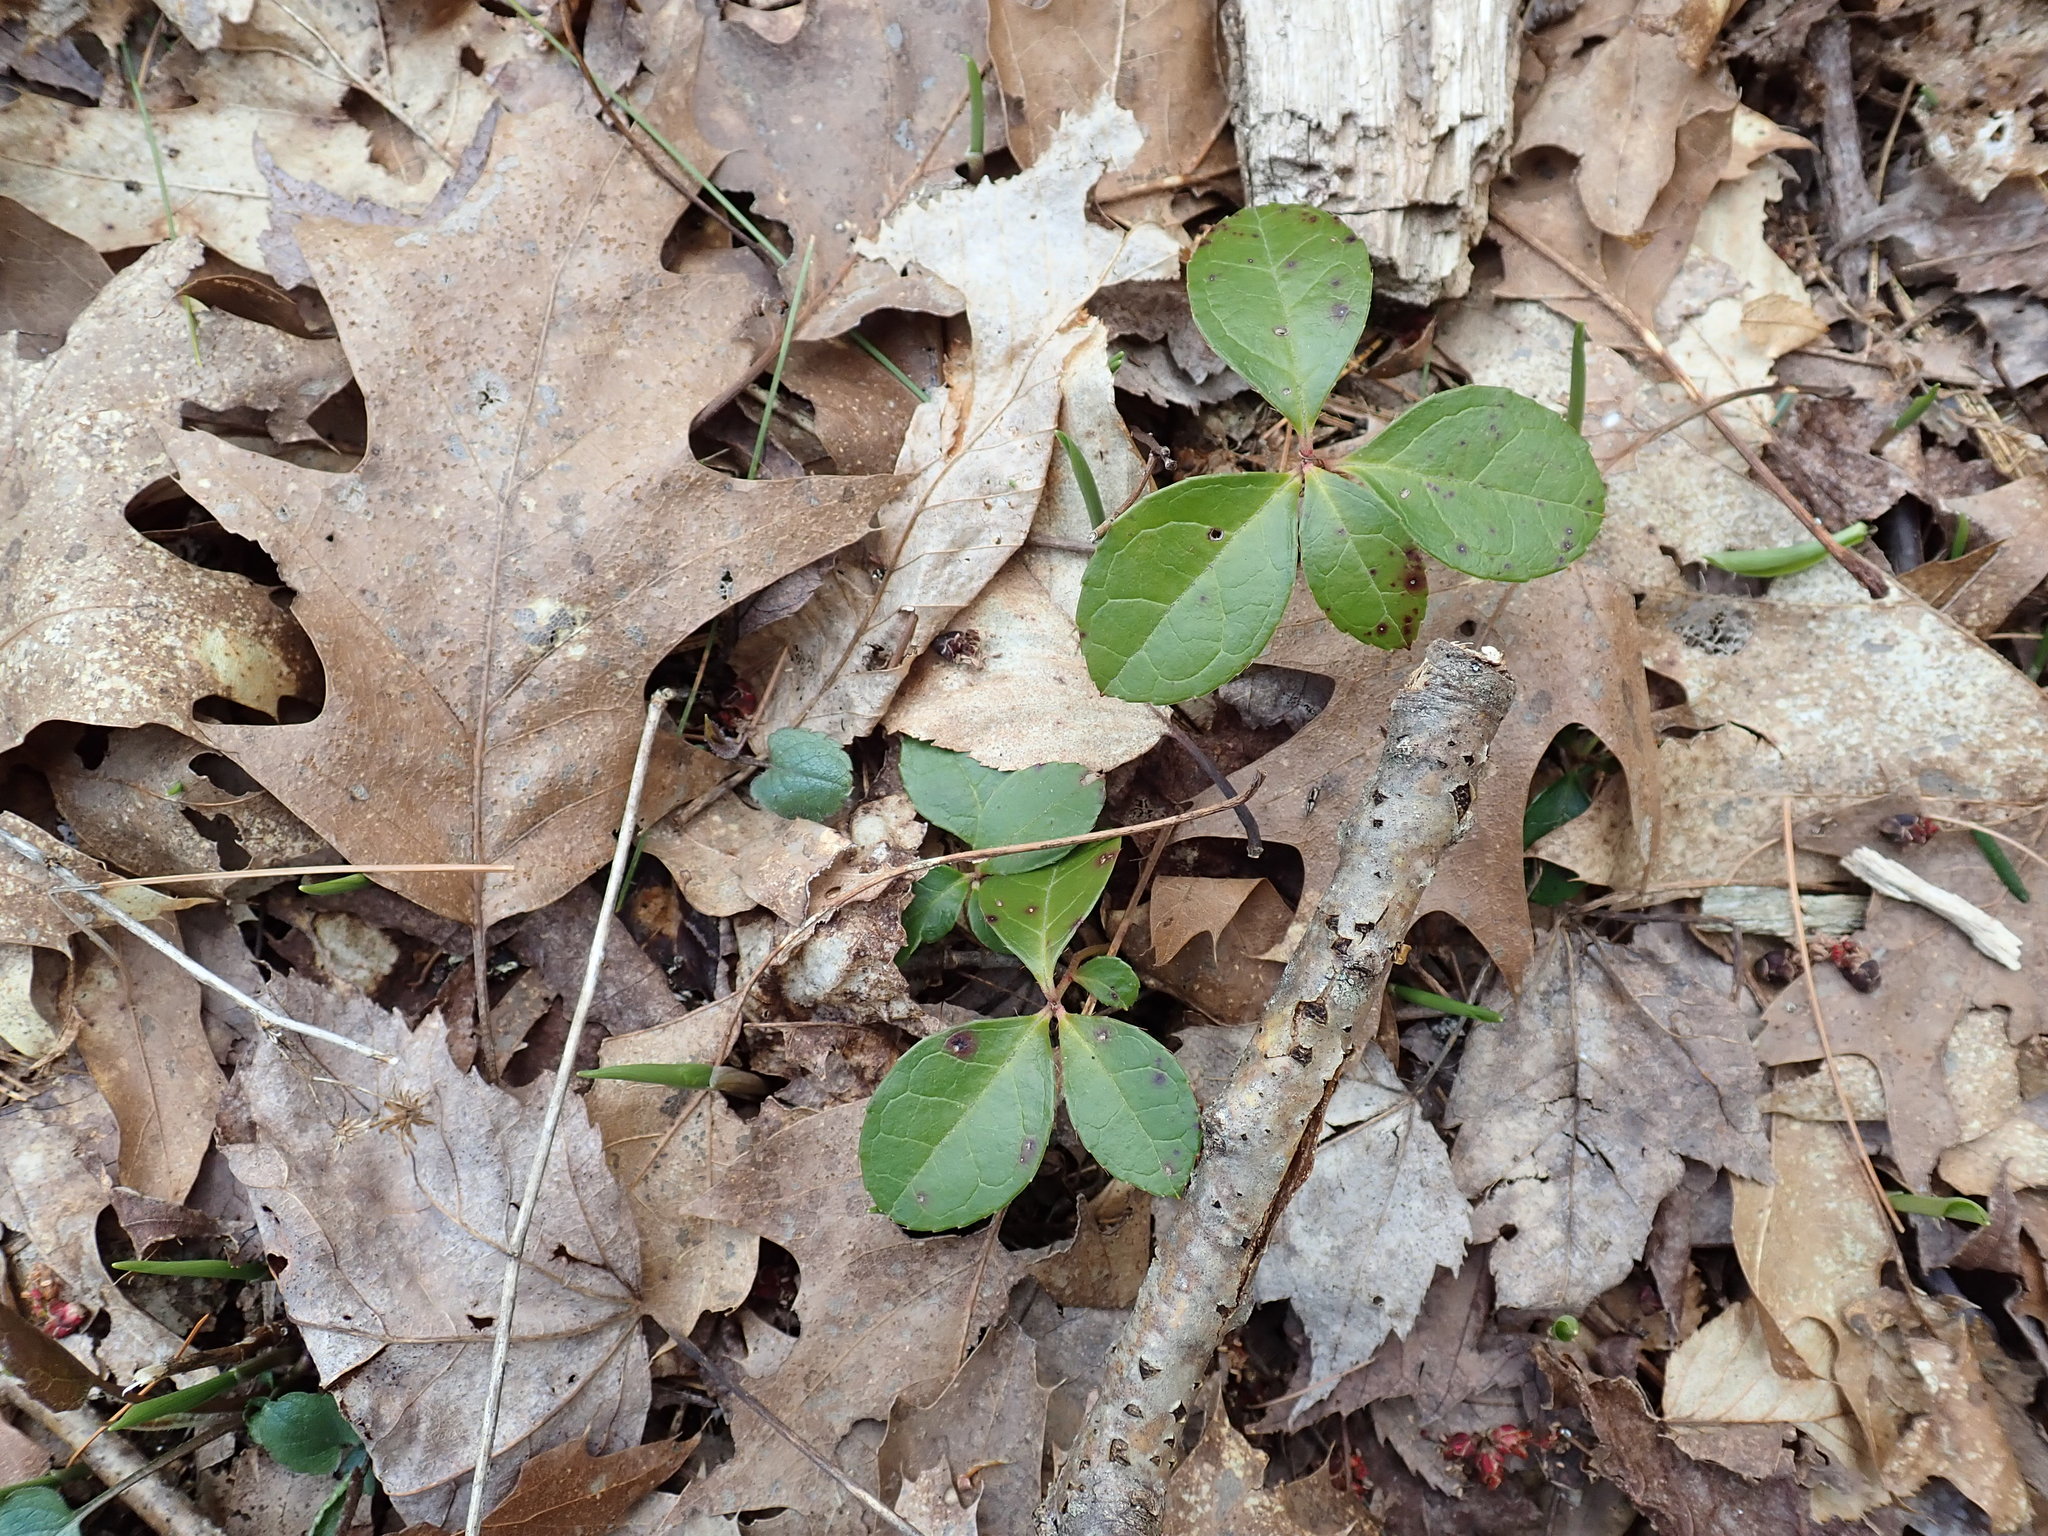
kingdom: Plantae
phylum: Tracheophyta
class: Magnoliopsida
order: Ericales
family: Ericaceae
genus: Gaultheria
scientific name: Gaultheria procumbens
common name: Checkerberry
